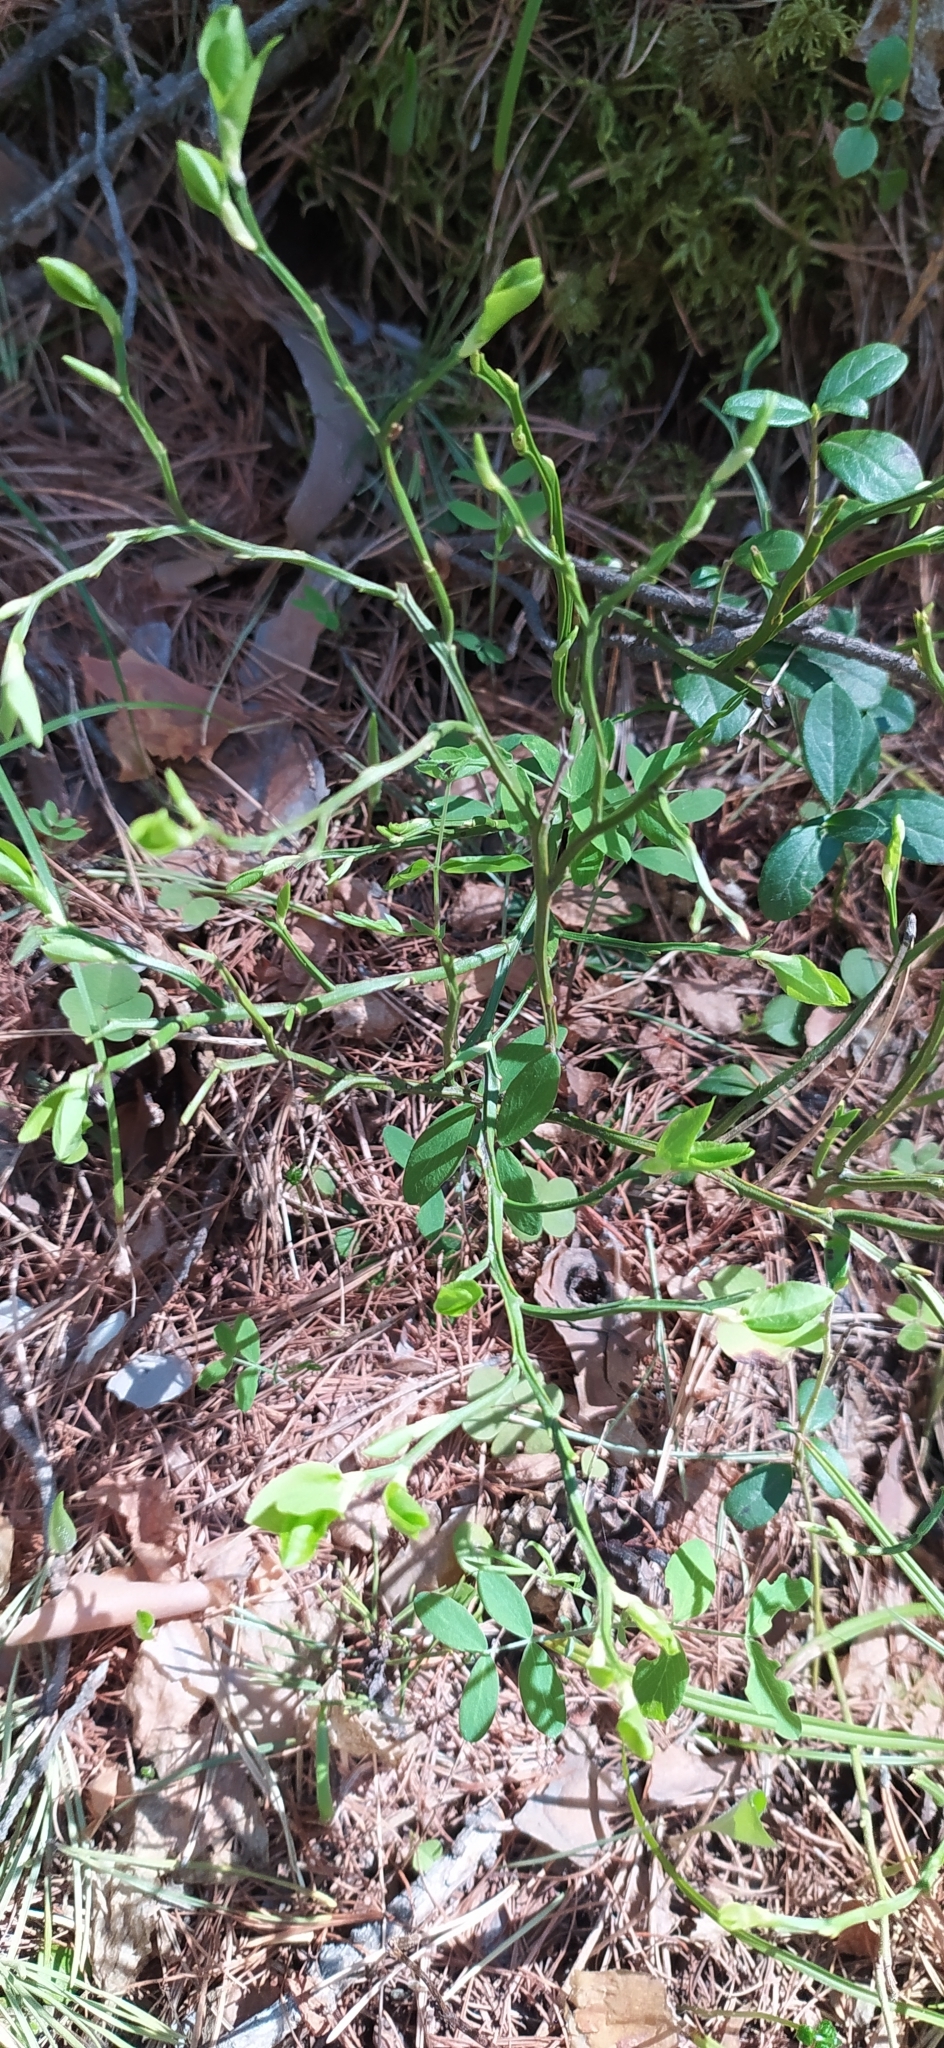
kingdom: Plantae
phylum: Tracheophyta
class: Magnoliopsida
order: Ericales
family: Ericaceae
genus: Vaccinium
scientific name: Vaccinium myrtillus
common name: Bilberry
